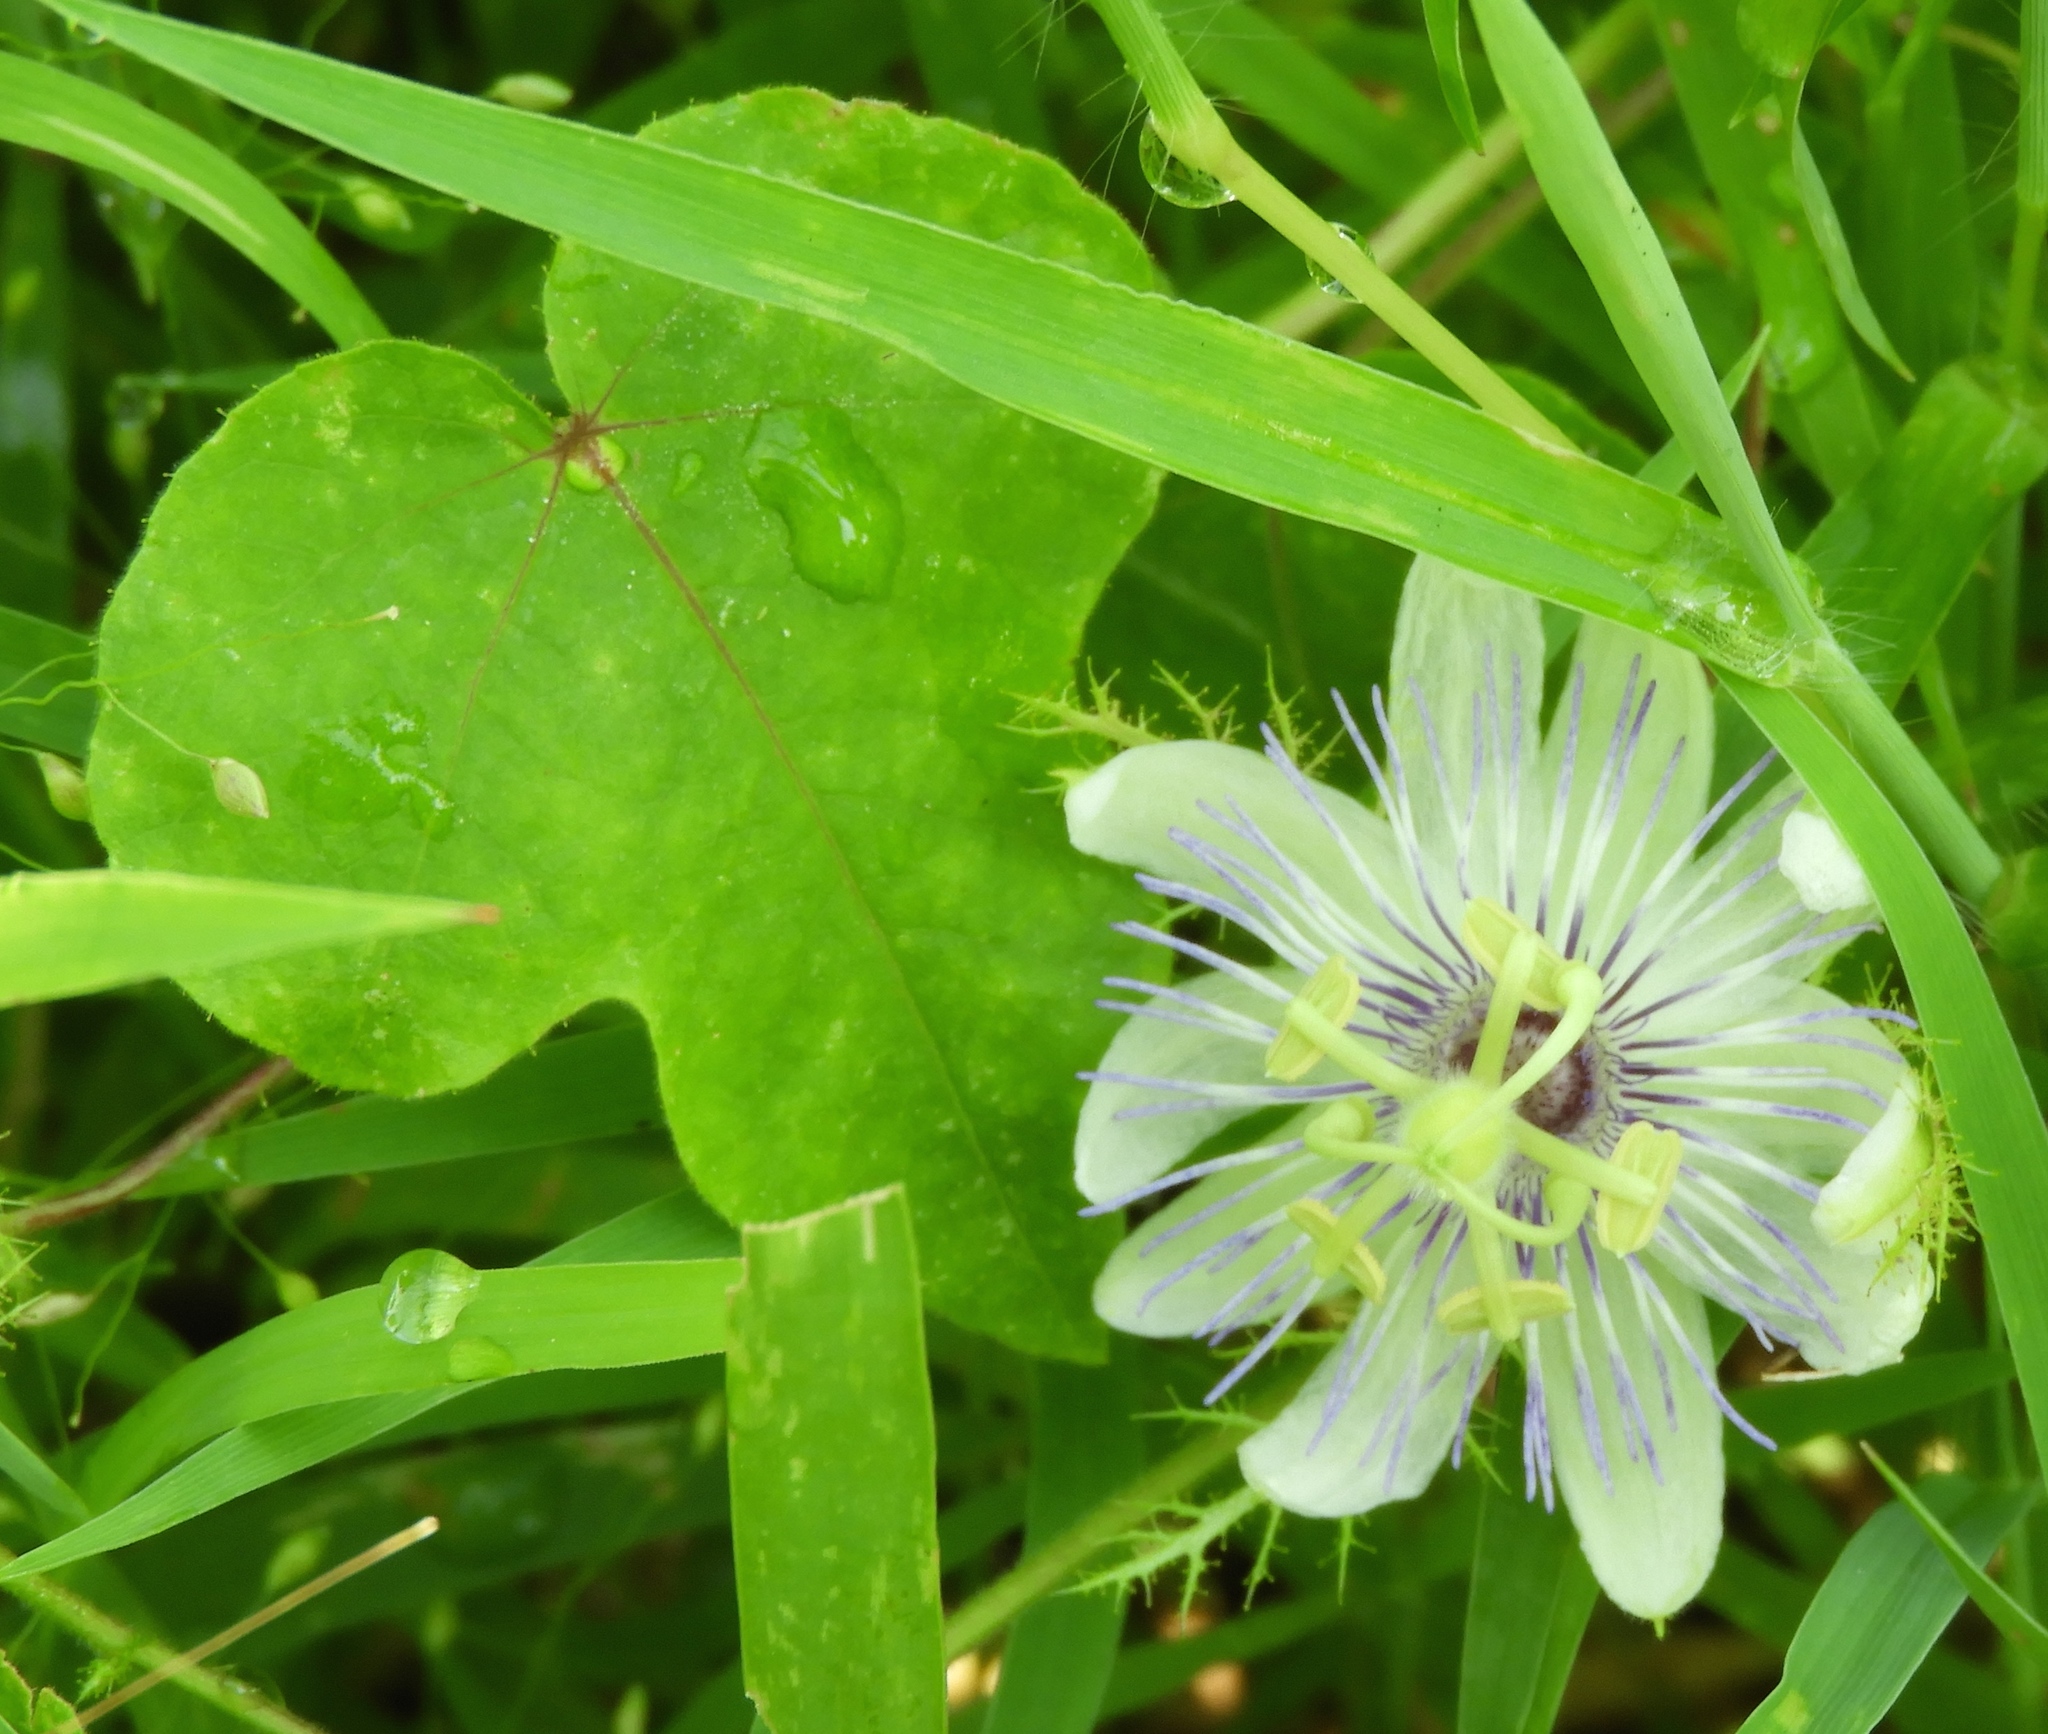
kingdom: Plantae
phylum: Tracheophyta
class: Magnoliopsida
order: Malpighiales
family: Passifloraceae
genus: Passiflora
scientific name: Passiflora foetida
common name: Fetid passionflower
